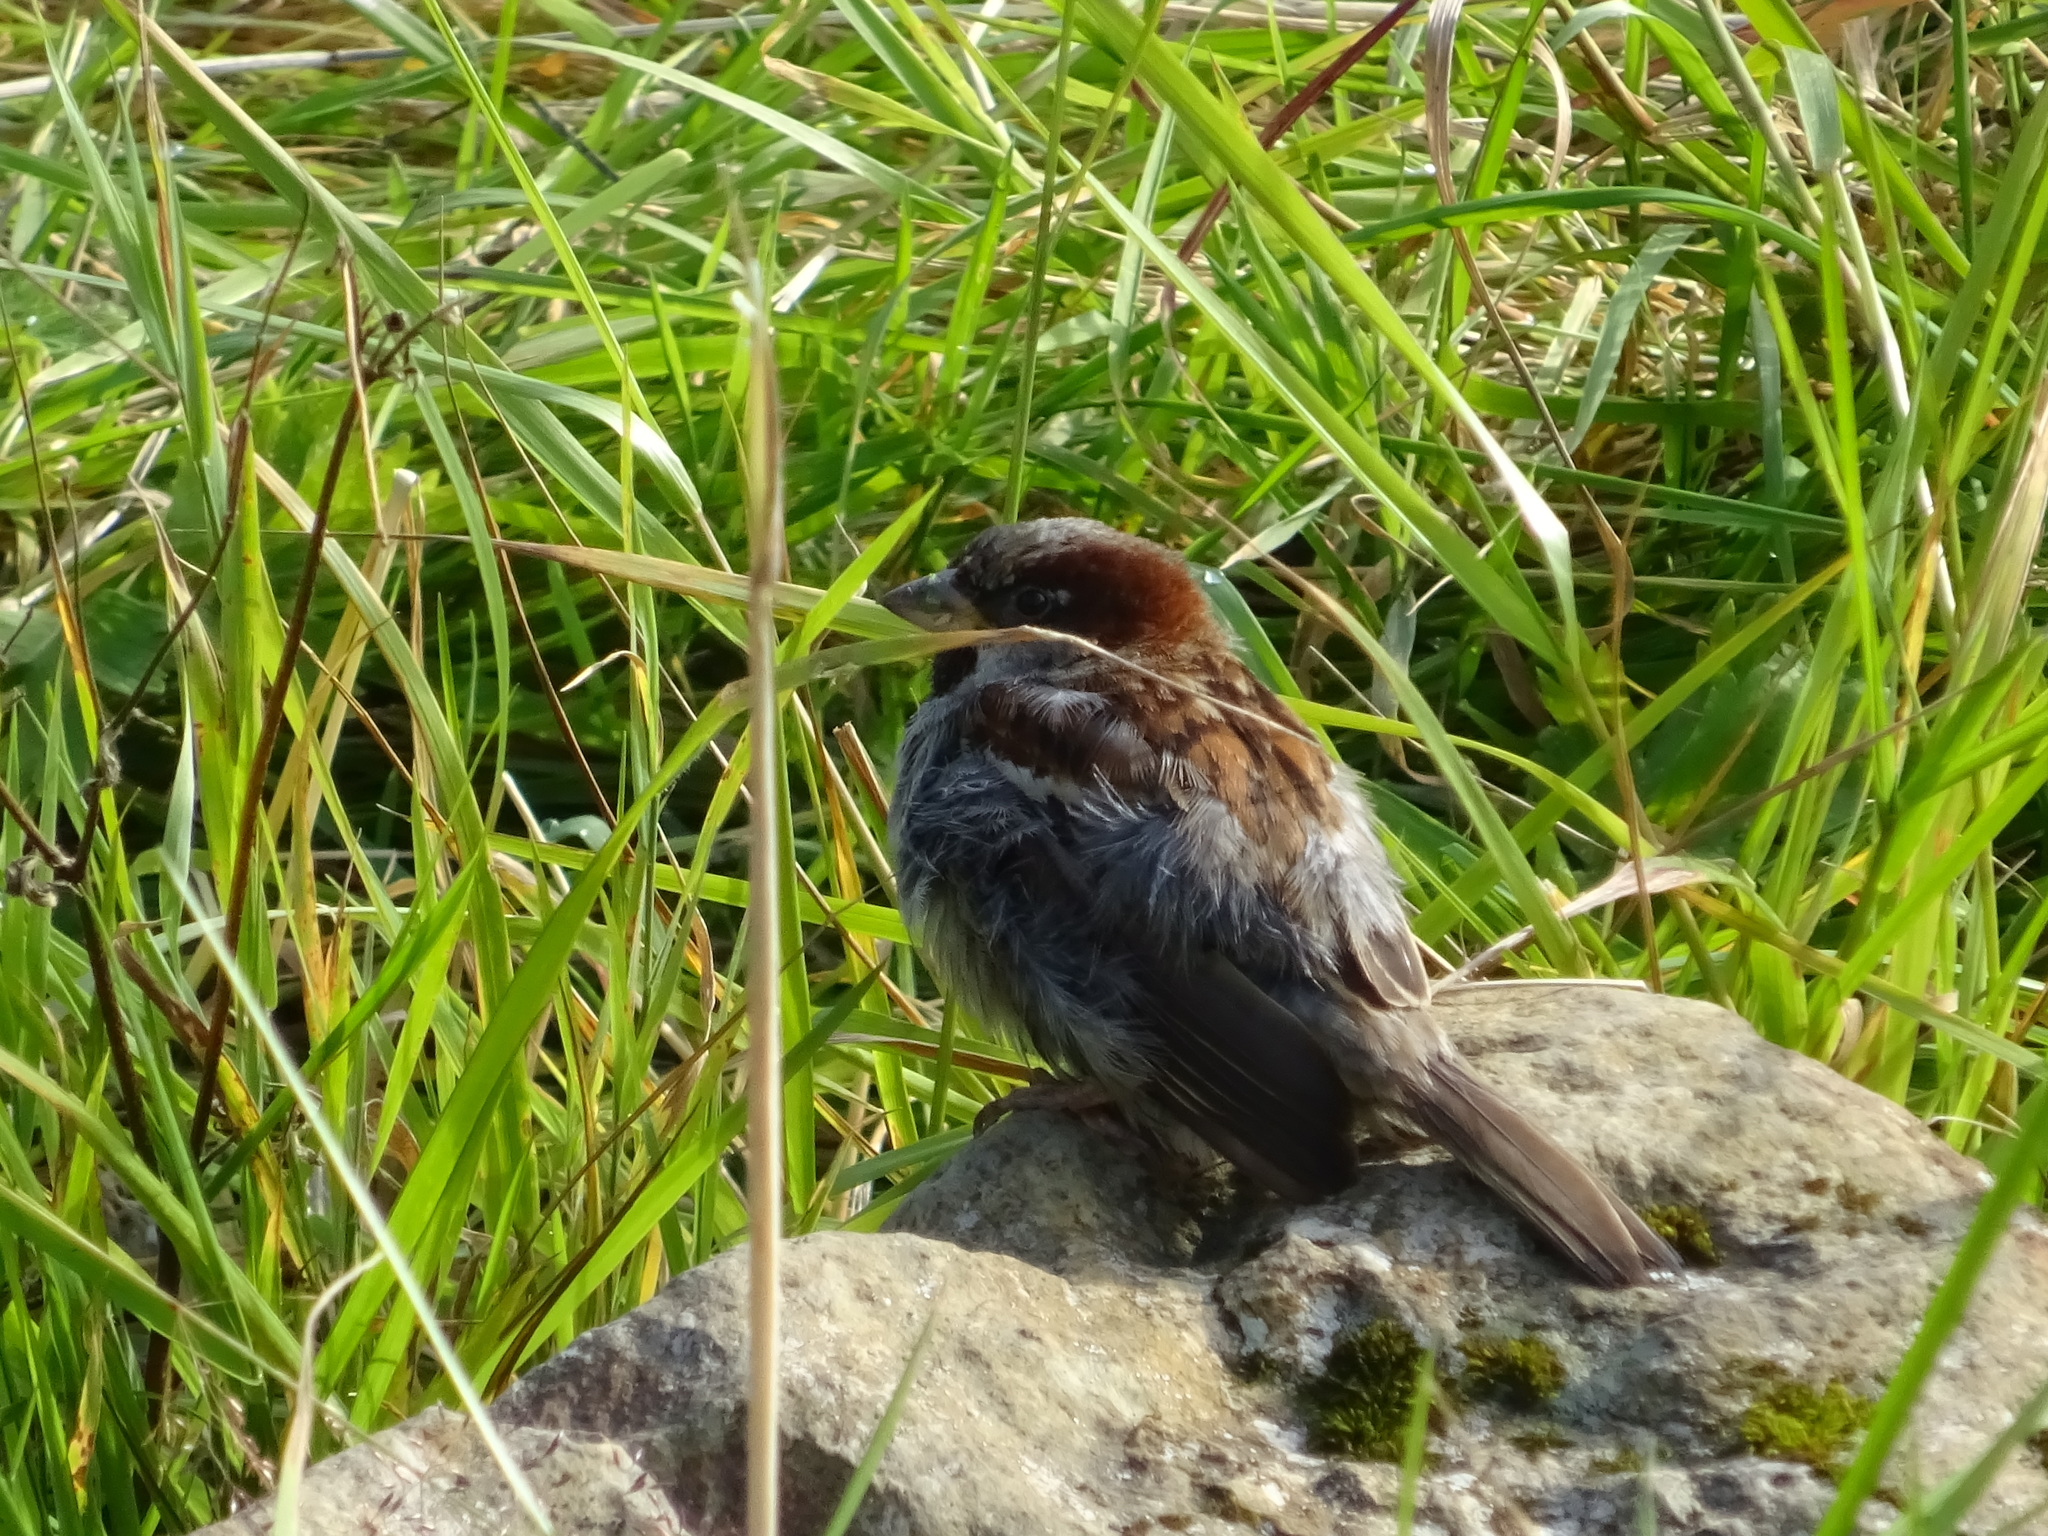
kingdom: Animalia
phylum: Chordata
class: Aves
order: Passeriformes
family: Passeridae
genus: Passer
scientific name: Passer domesticus
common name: House sparrow
